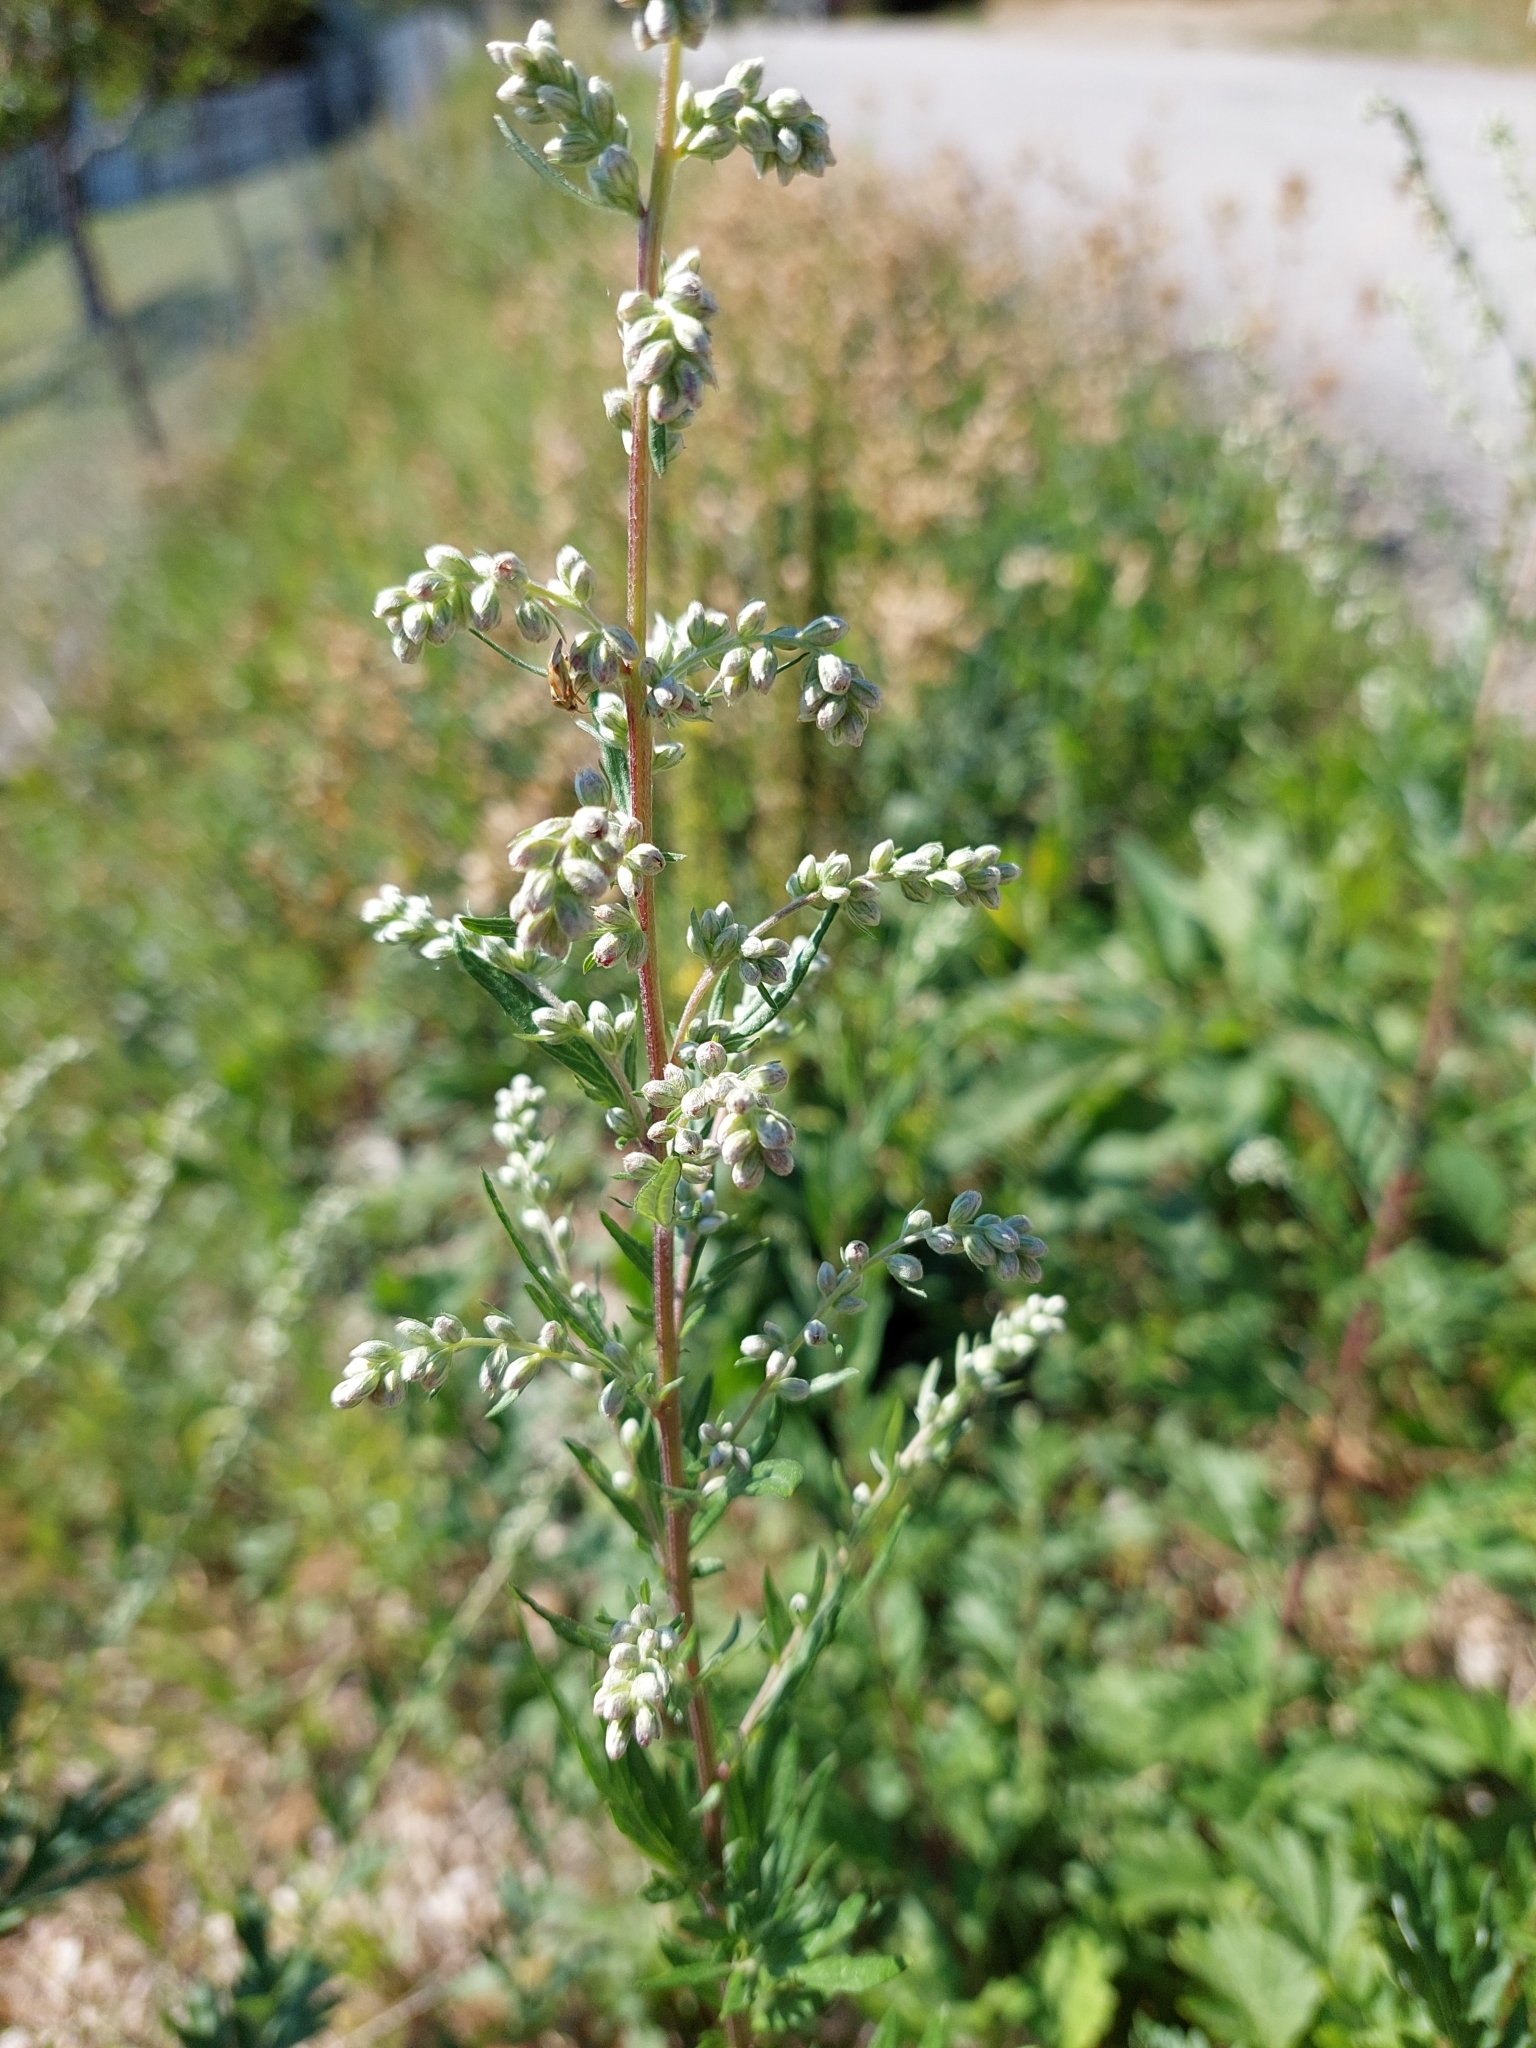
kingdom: Plantae
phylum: Tracheophyta
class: Magnoliopsida
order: Asterales
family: Asteraceae
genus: Artemisia
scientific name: Artemisia vulgaris
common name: Mugwort
